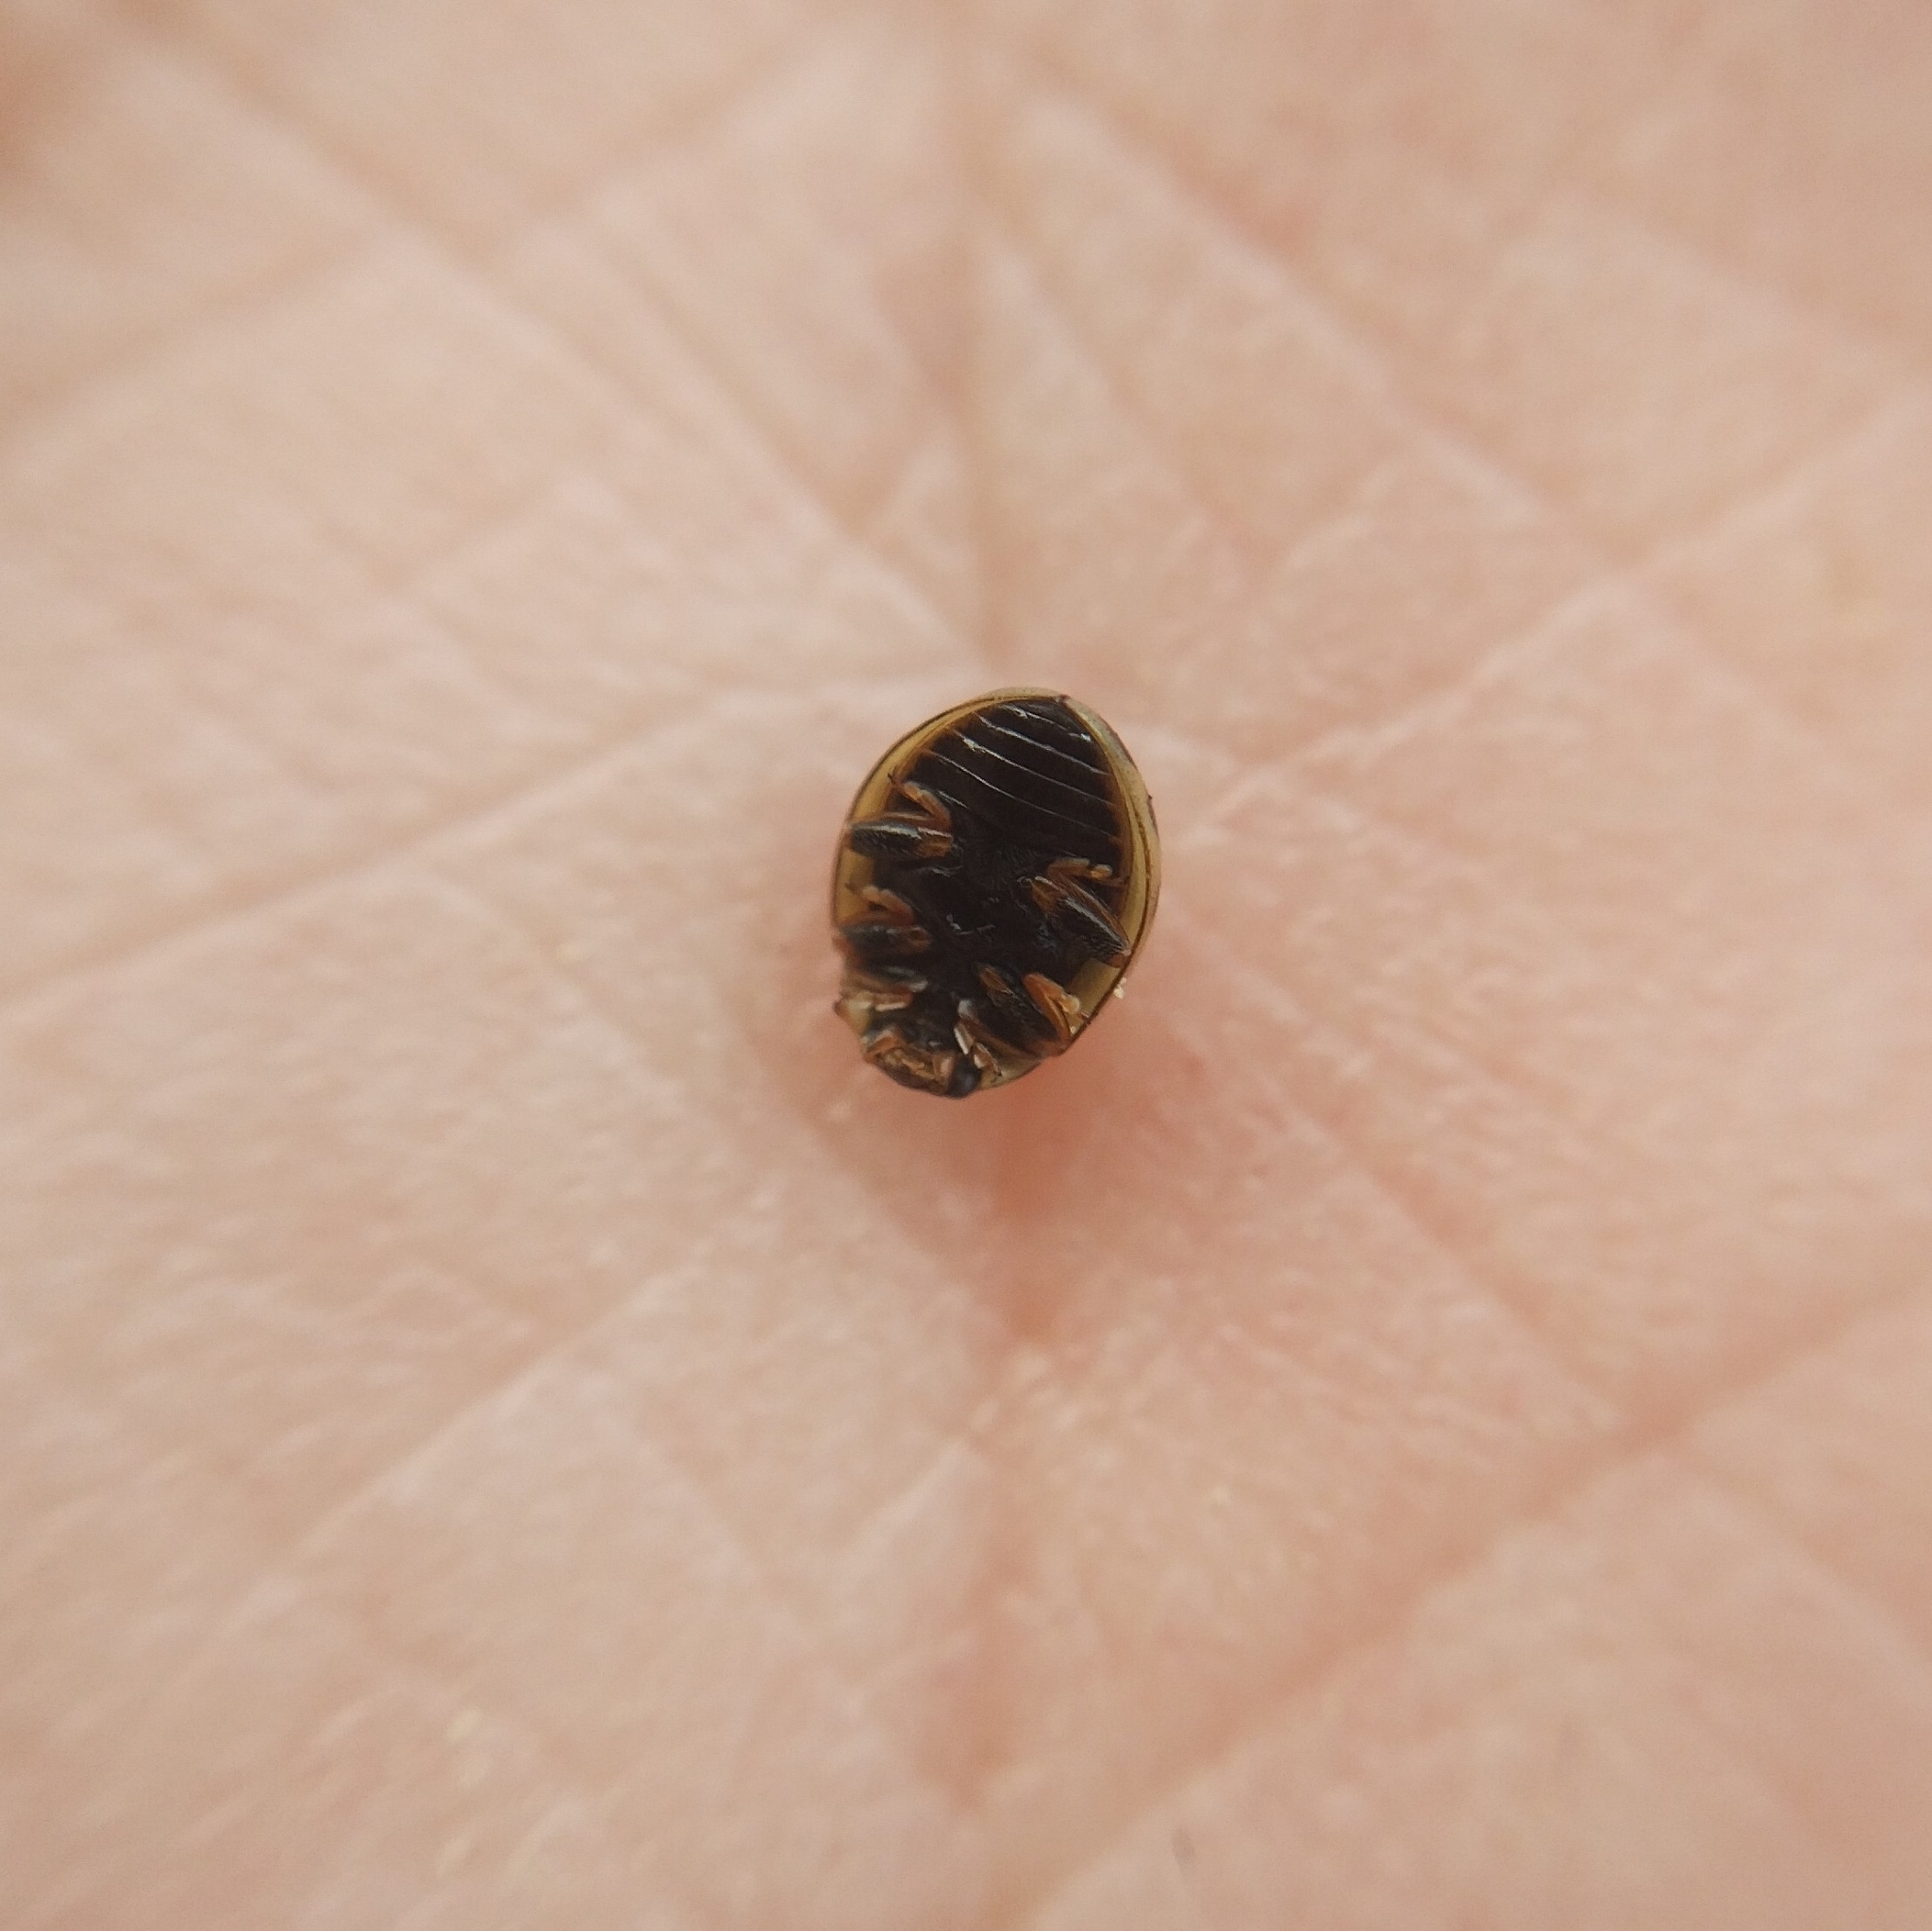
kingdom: Animalia
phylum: Arthropoda
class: Insecta
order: Coleoptera
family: Coccinellidae
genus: Tytthaspis
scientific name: Tytthaspis sedecimpunctata
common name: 16-spot ladybird
